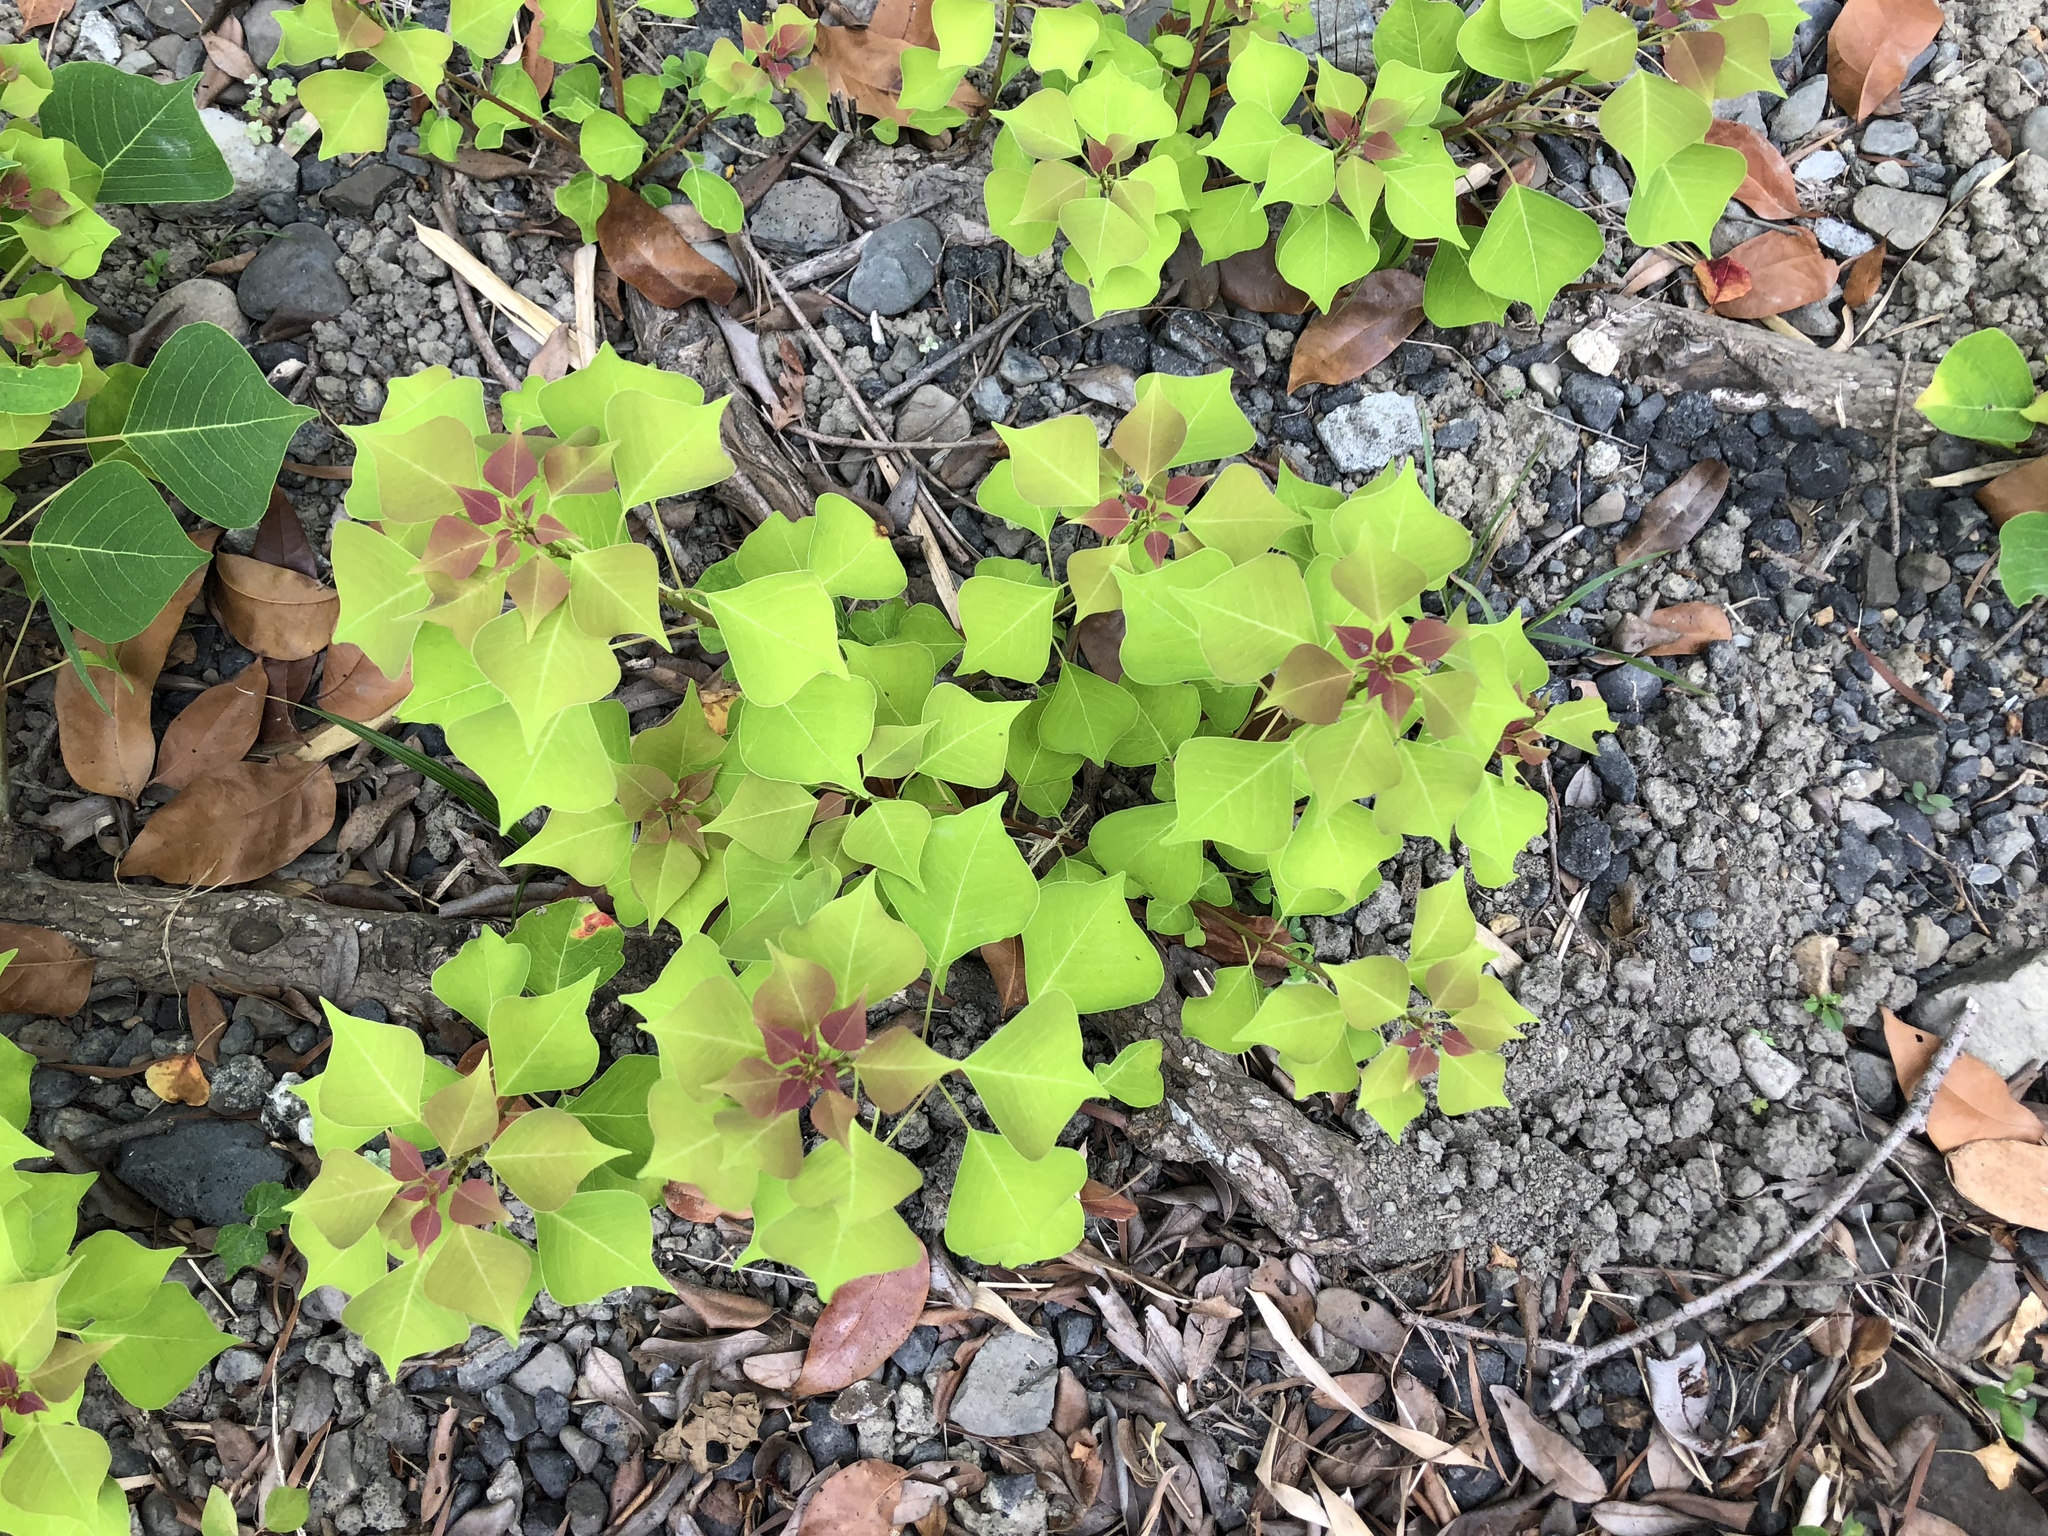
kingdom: Plantae
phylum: Tracheophyta
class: Magnoliopsida
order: Malpighiales
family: Euphorbiaceae
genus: Triadica
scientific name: Triadica sebifera
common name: Chinese tallow
